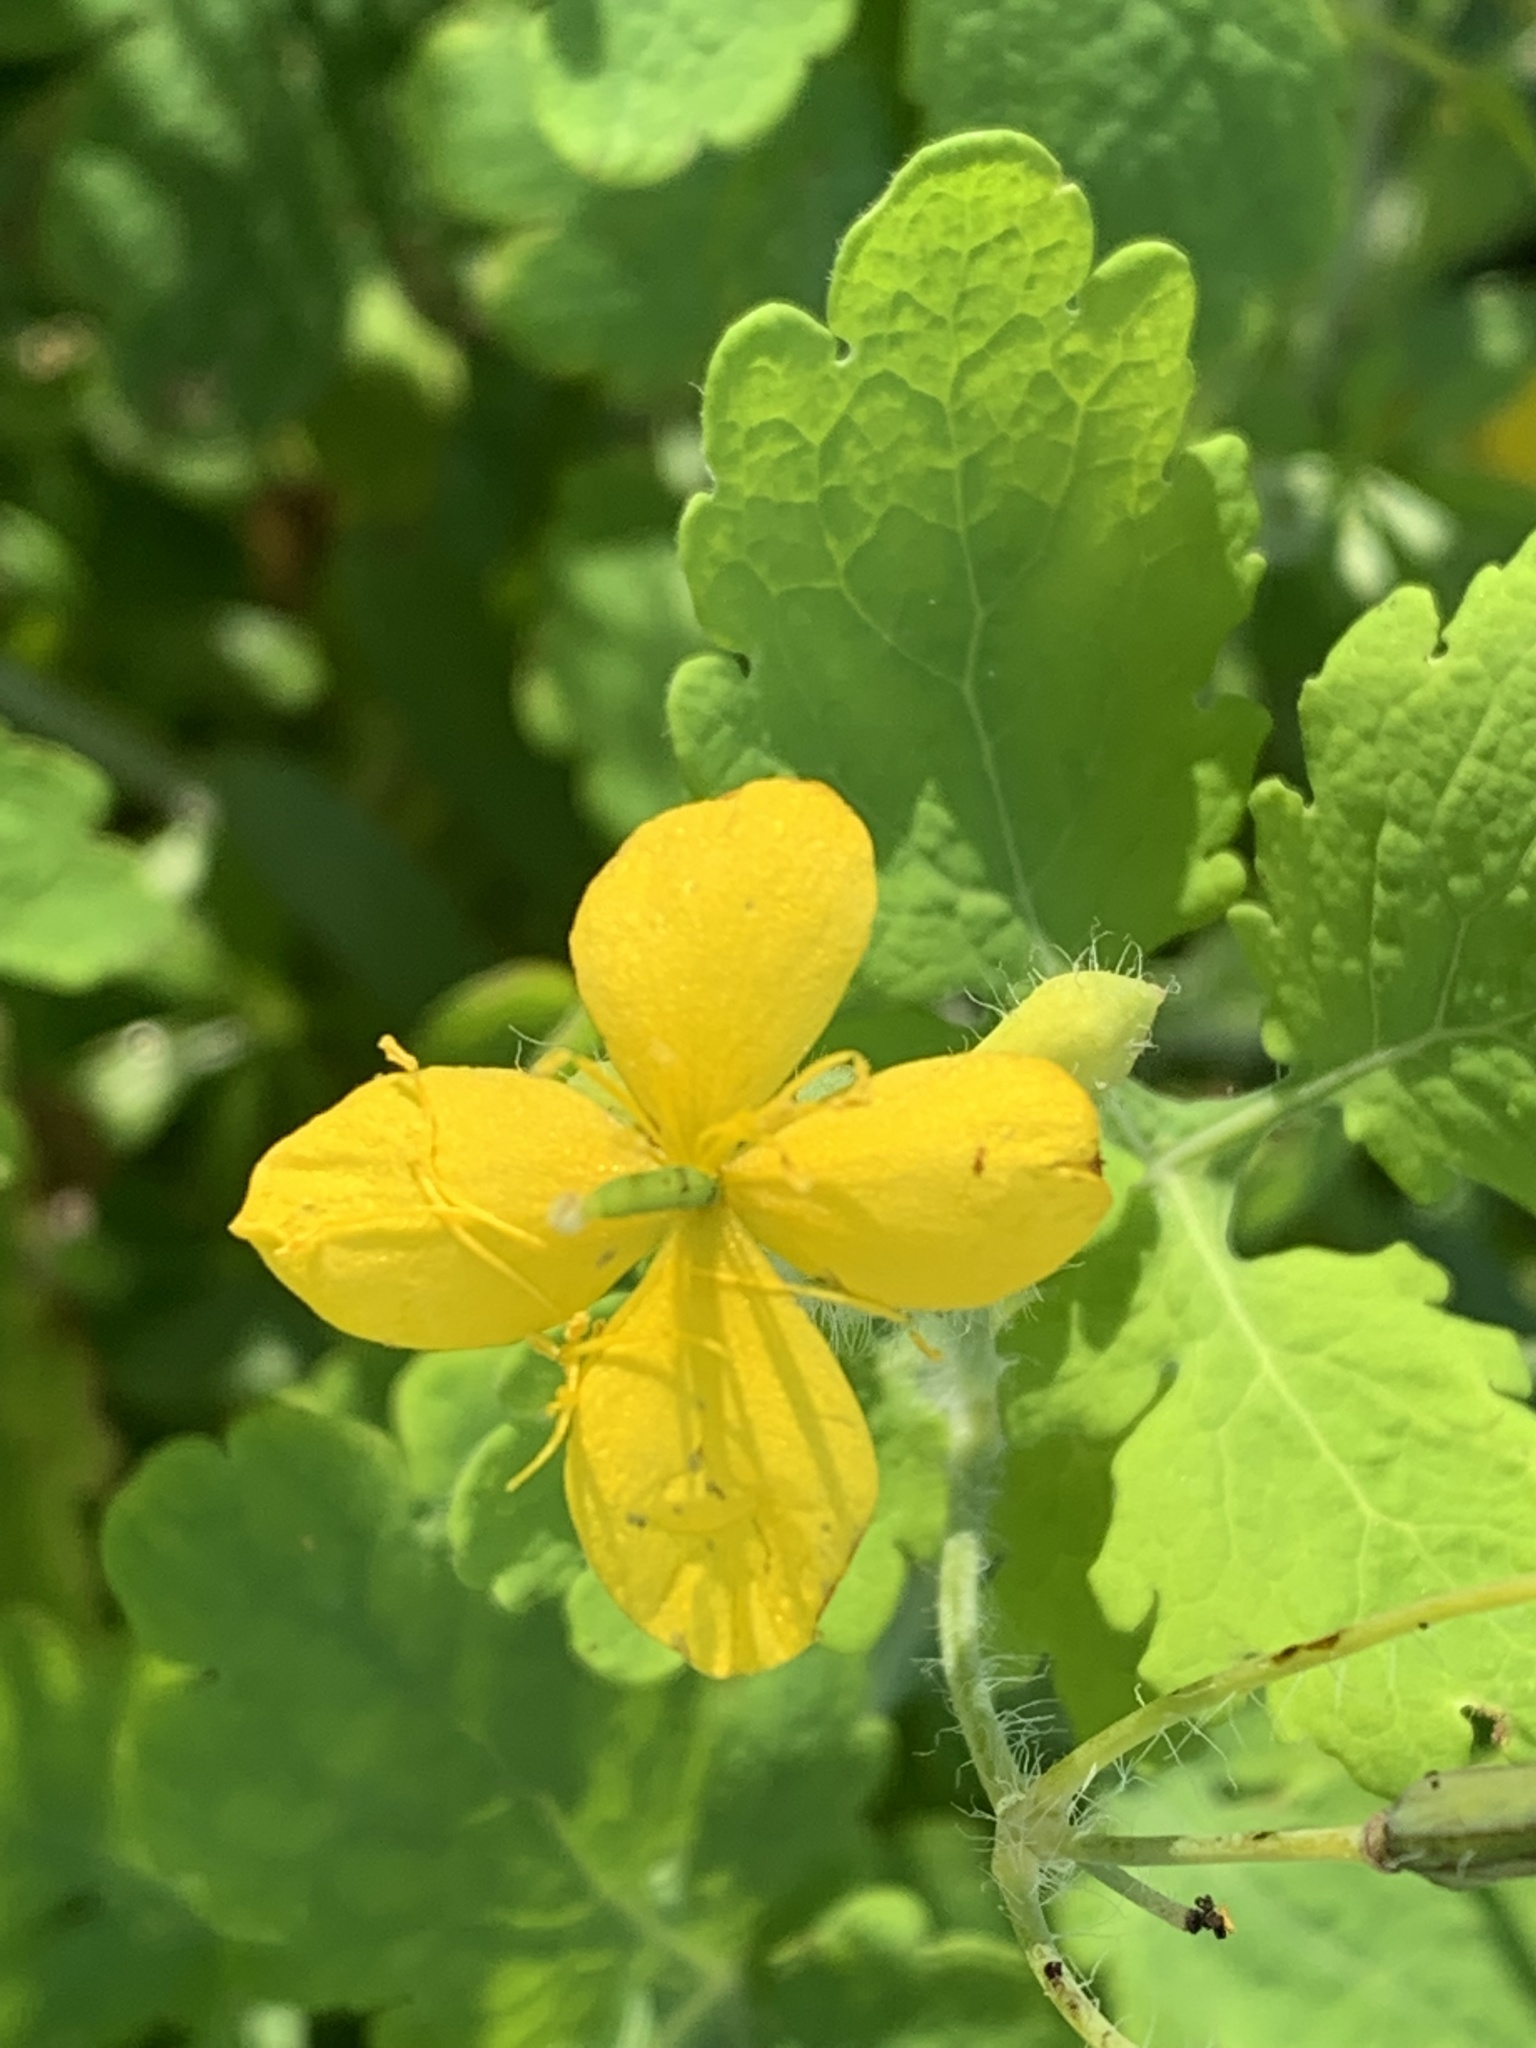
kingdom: Plantae
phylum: Tracheophyta
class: Magnoliopsida
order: Ranunculales
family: Papaveraceae
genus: Chelidonium
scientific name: Chelidonium majus
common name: Greater celandine
